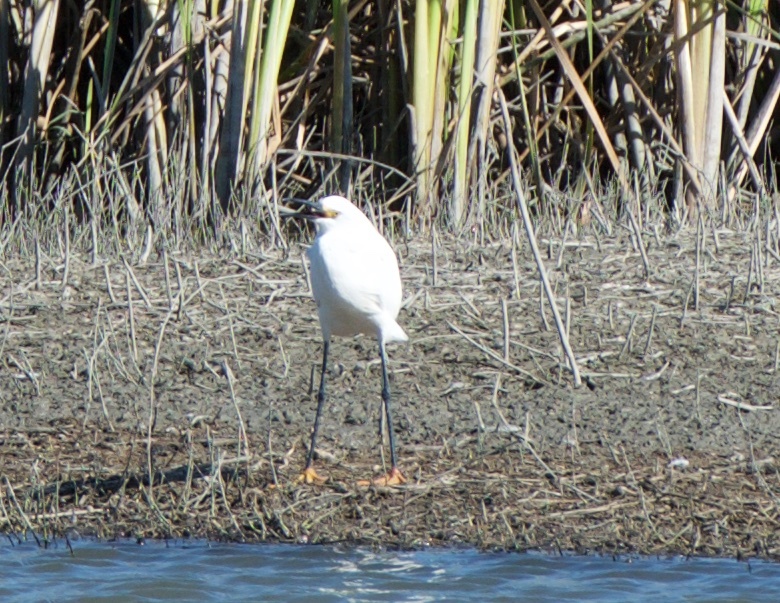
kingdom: Animalia
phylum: Chordata
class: Aves
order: Pelecaniformes
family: Ardeidae
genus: Egretta
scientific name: Egretta thula
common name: Snowy egret
